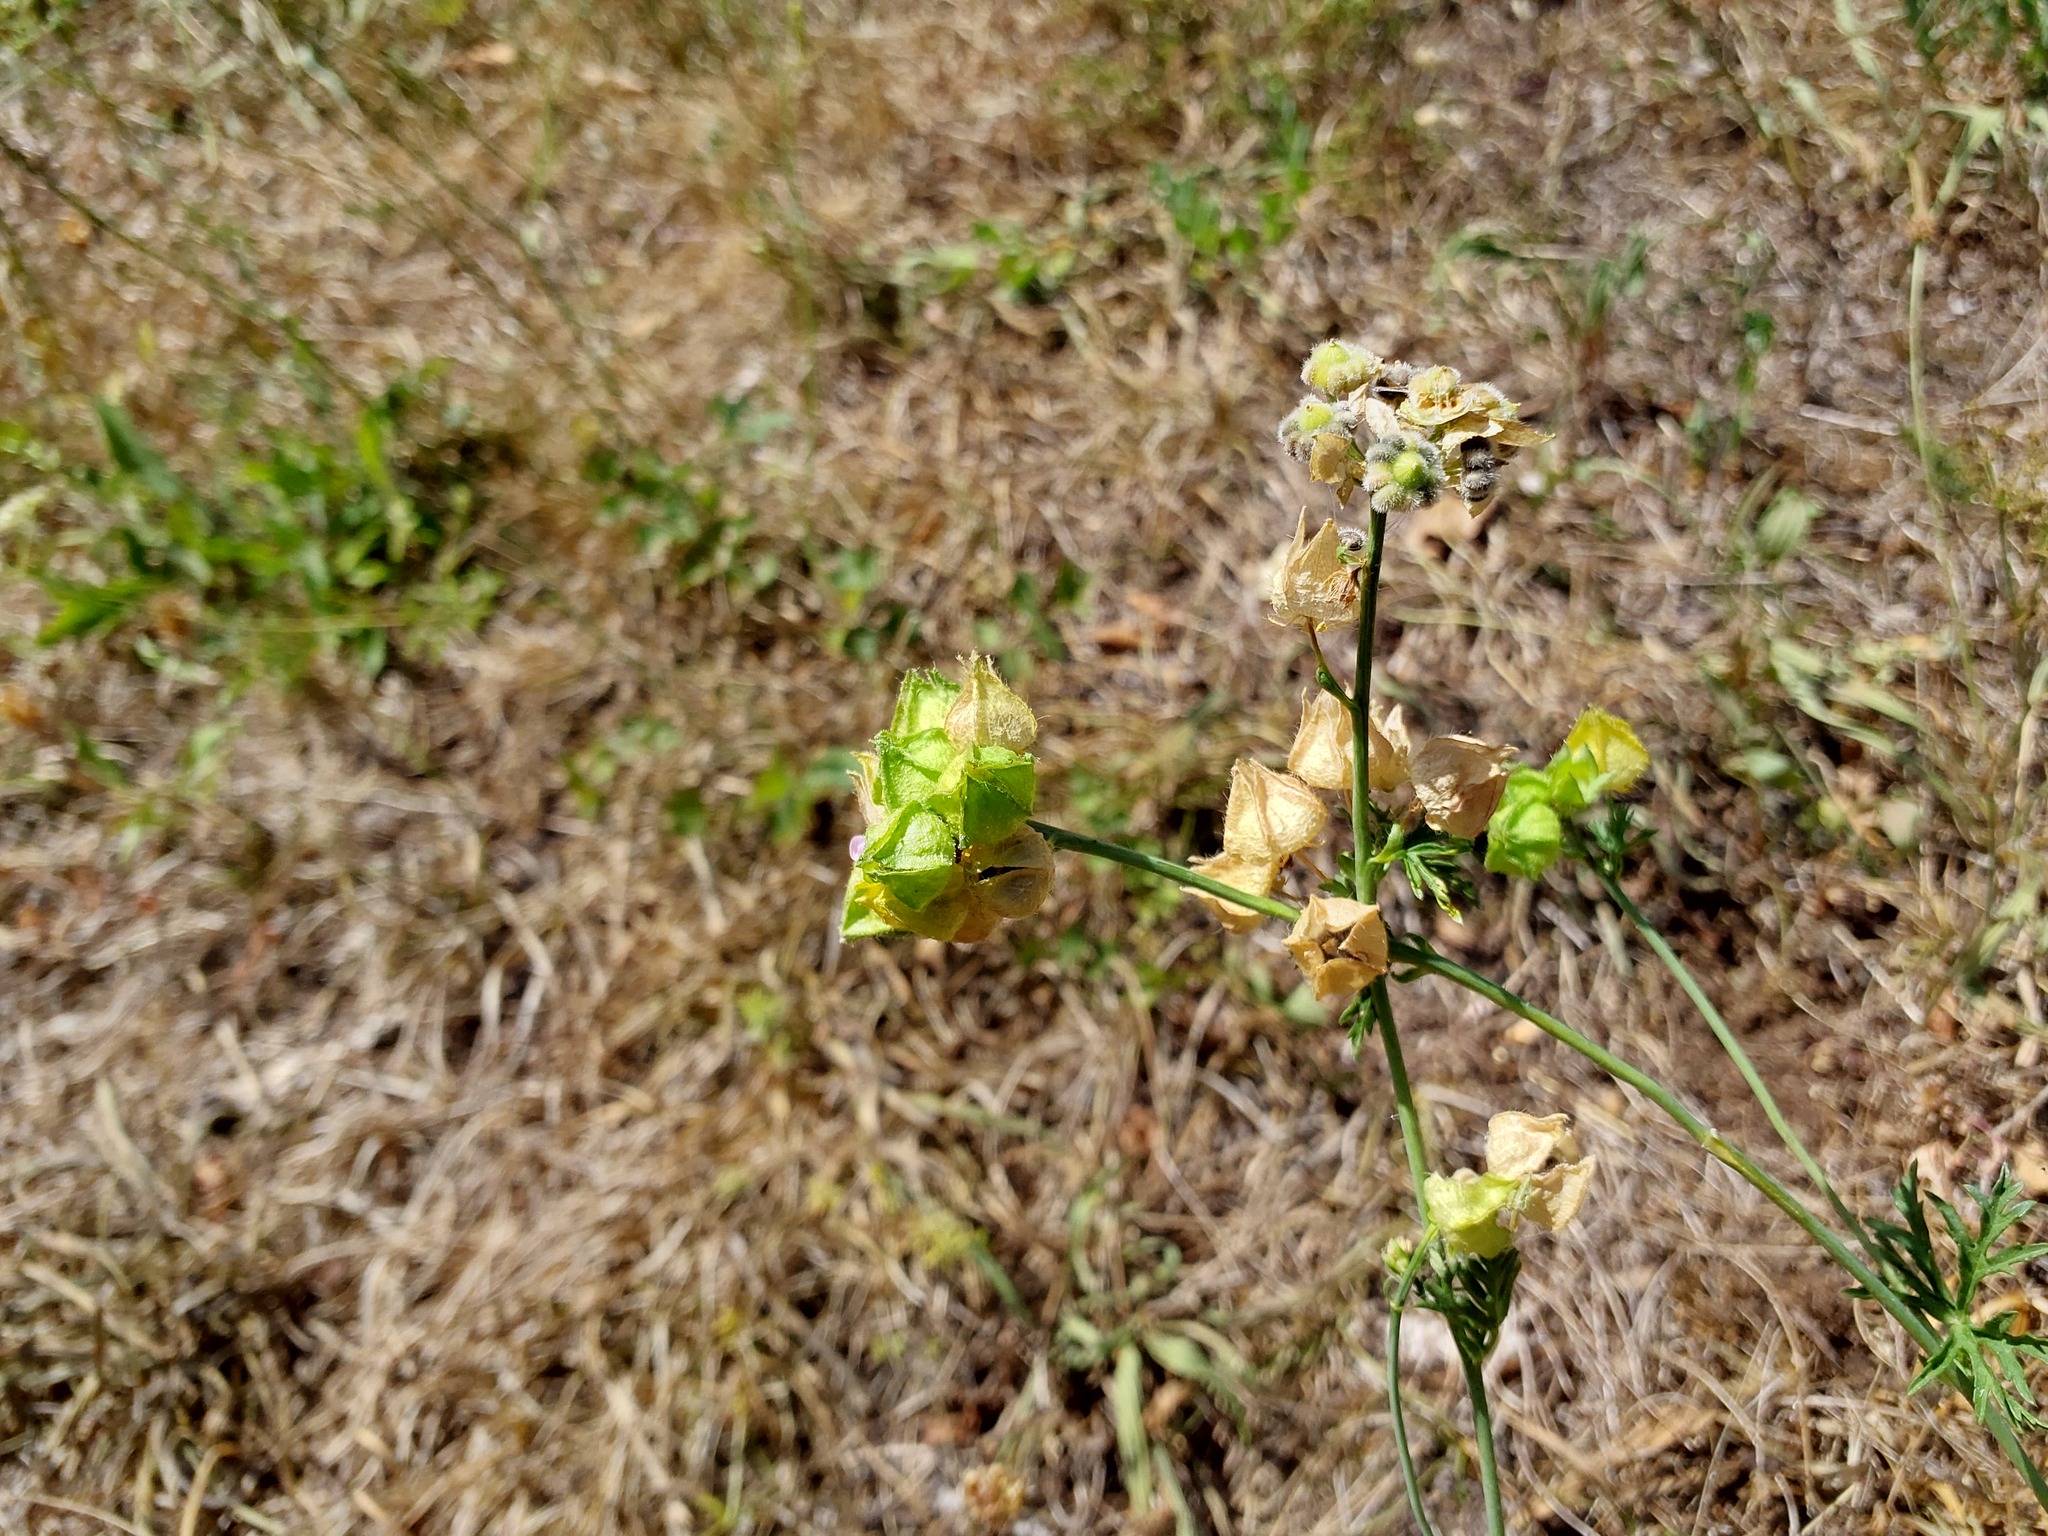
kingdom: Plantae
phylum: Tracheophyta
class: Magnoliopsida
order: Malvales
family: Malvaceae
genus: Malva
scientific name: Malva moschata
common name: Musk mallow
